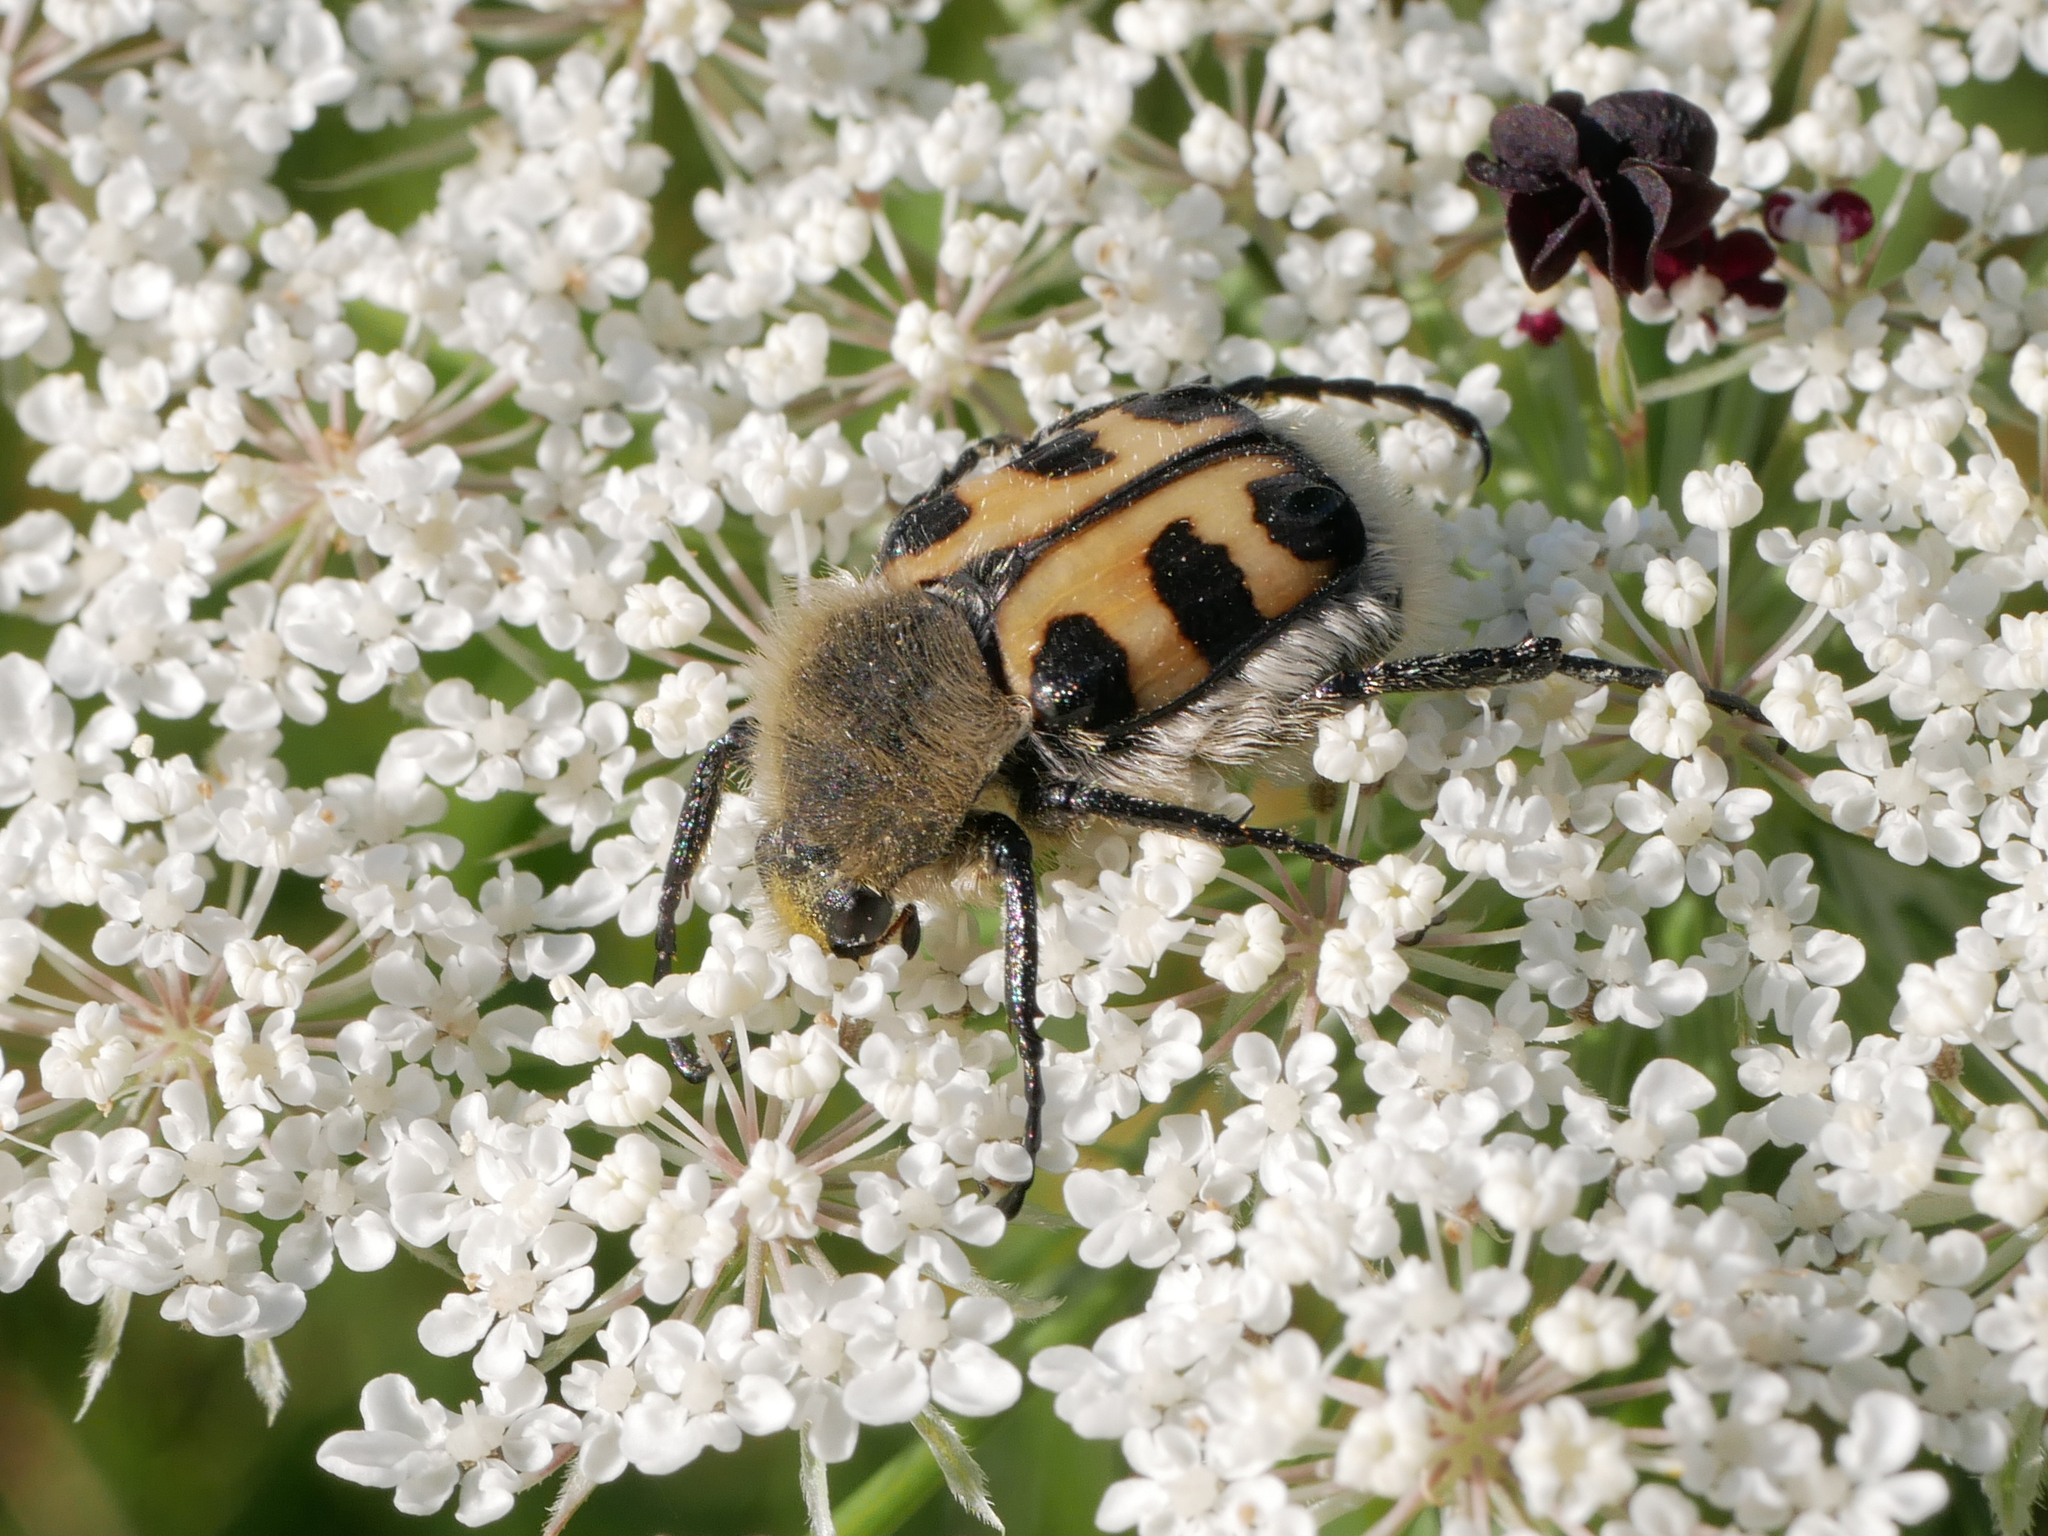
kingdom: Animalia
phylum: Arthropoda
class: Insecta
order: Coleoptera
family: Scarabaeidae
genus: Trichius
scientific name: Trichius gallicus
